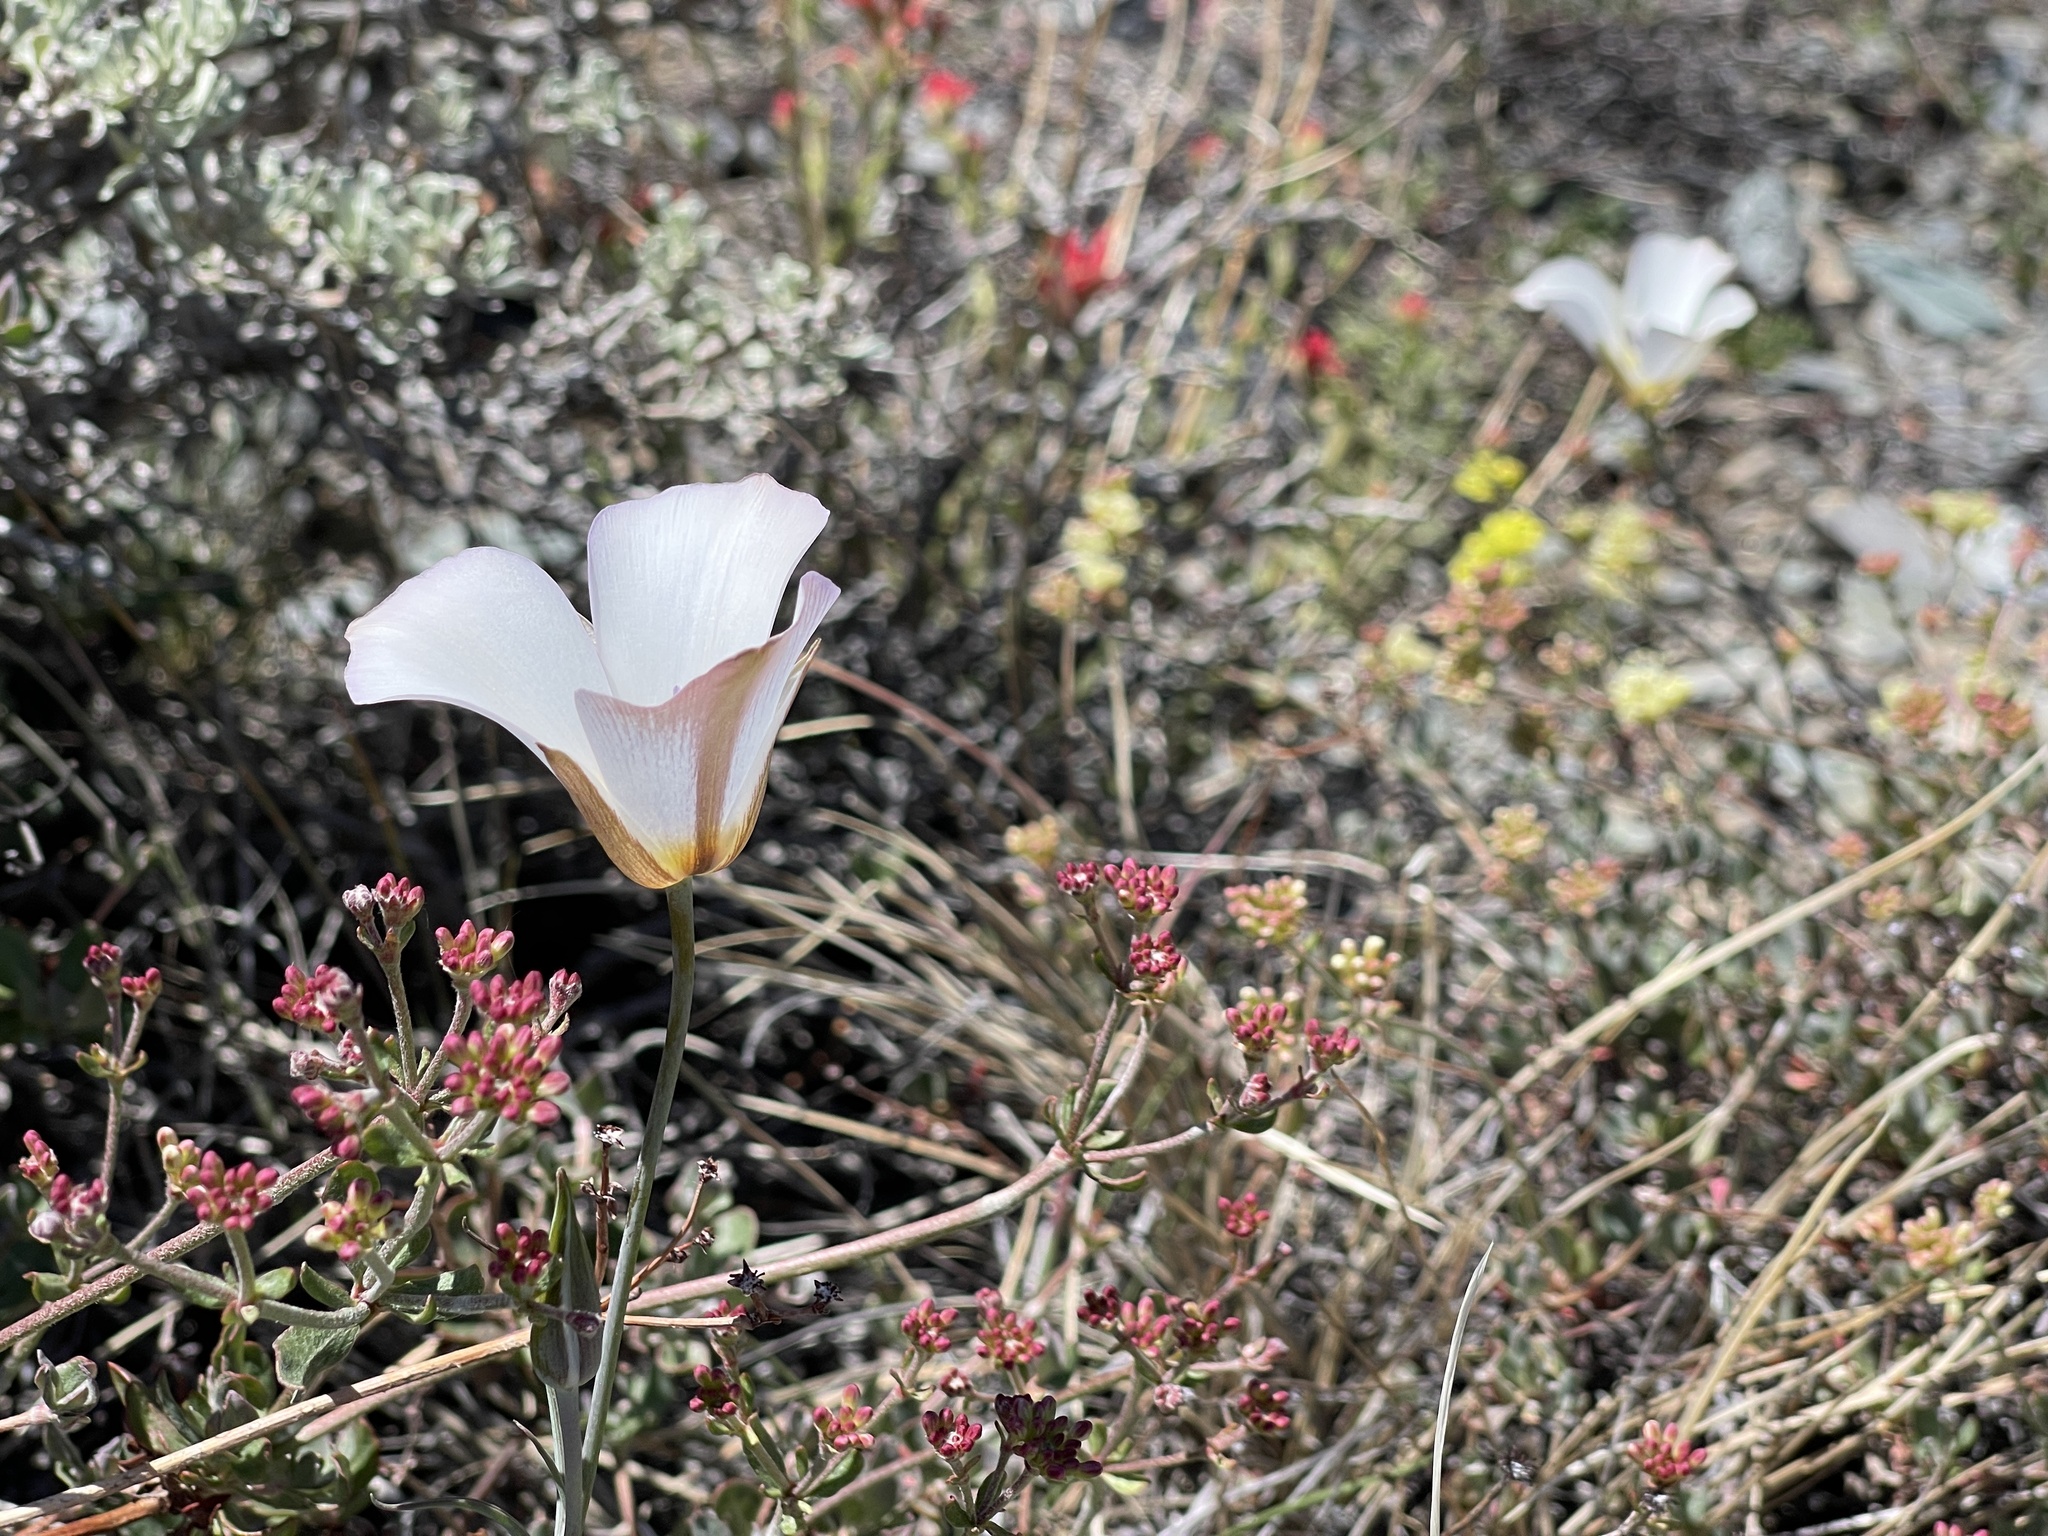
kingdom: Plantae
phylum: Tracheophyta
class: Liliopsida
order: Liliales
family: Liliaceae
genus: Calochortus
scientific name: Calochortus panamintensis
